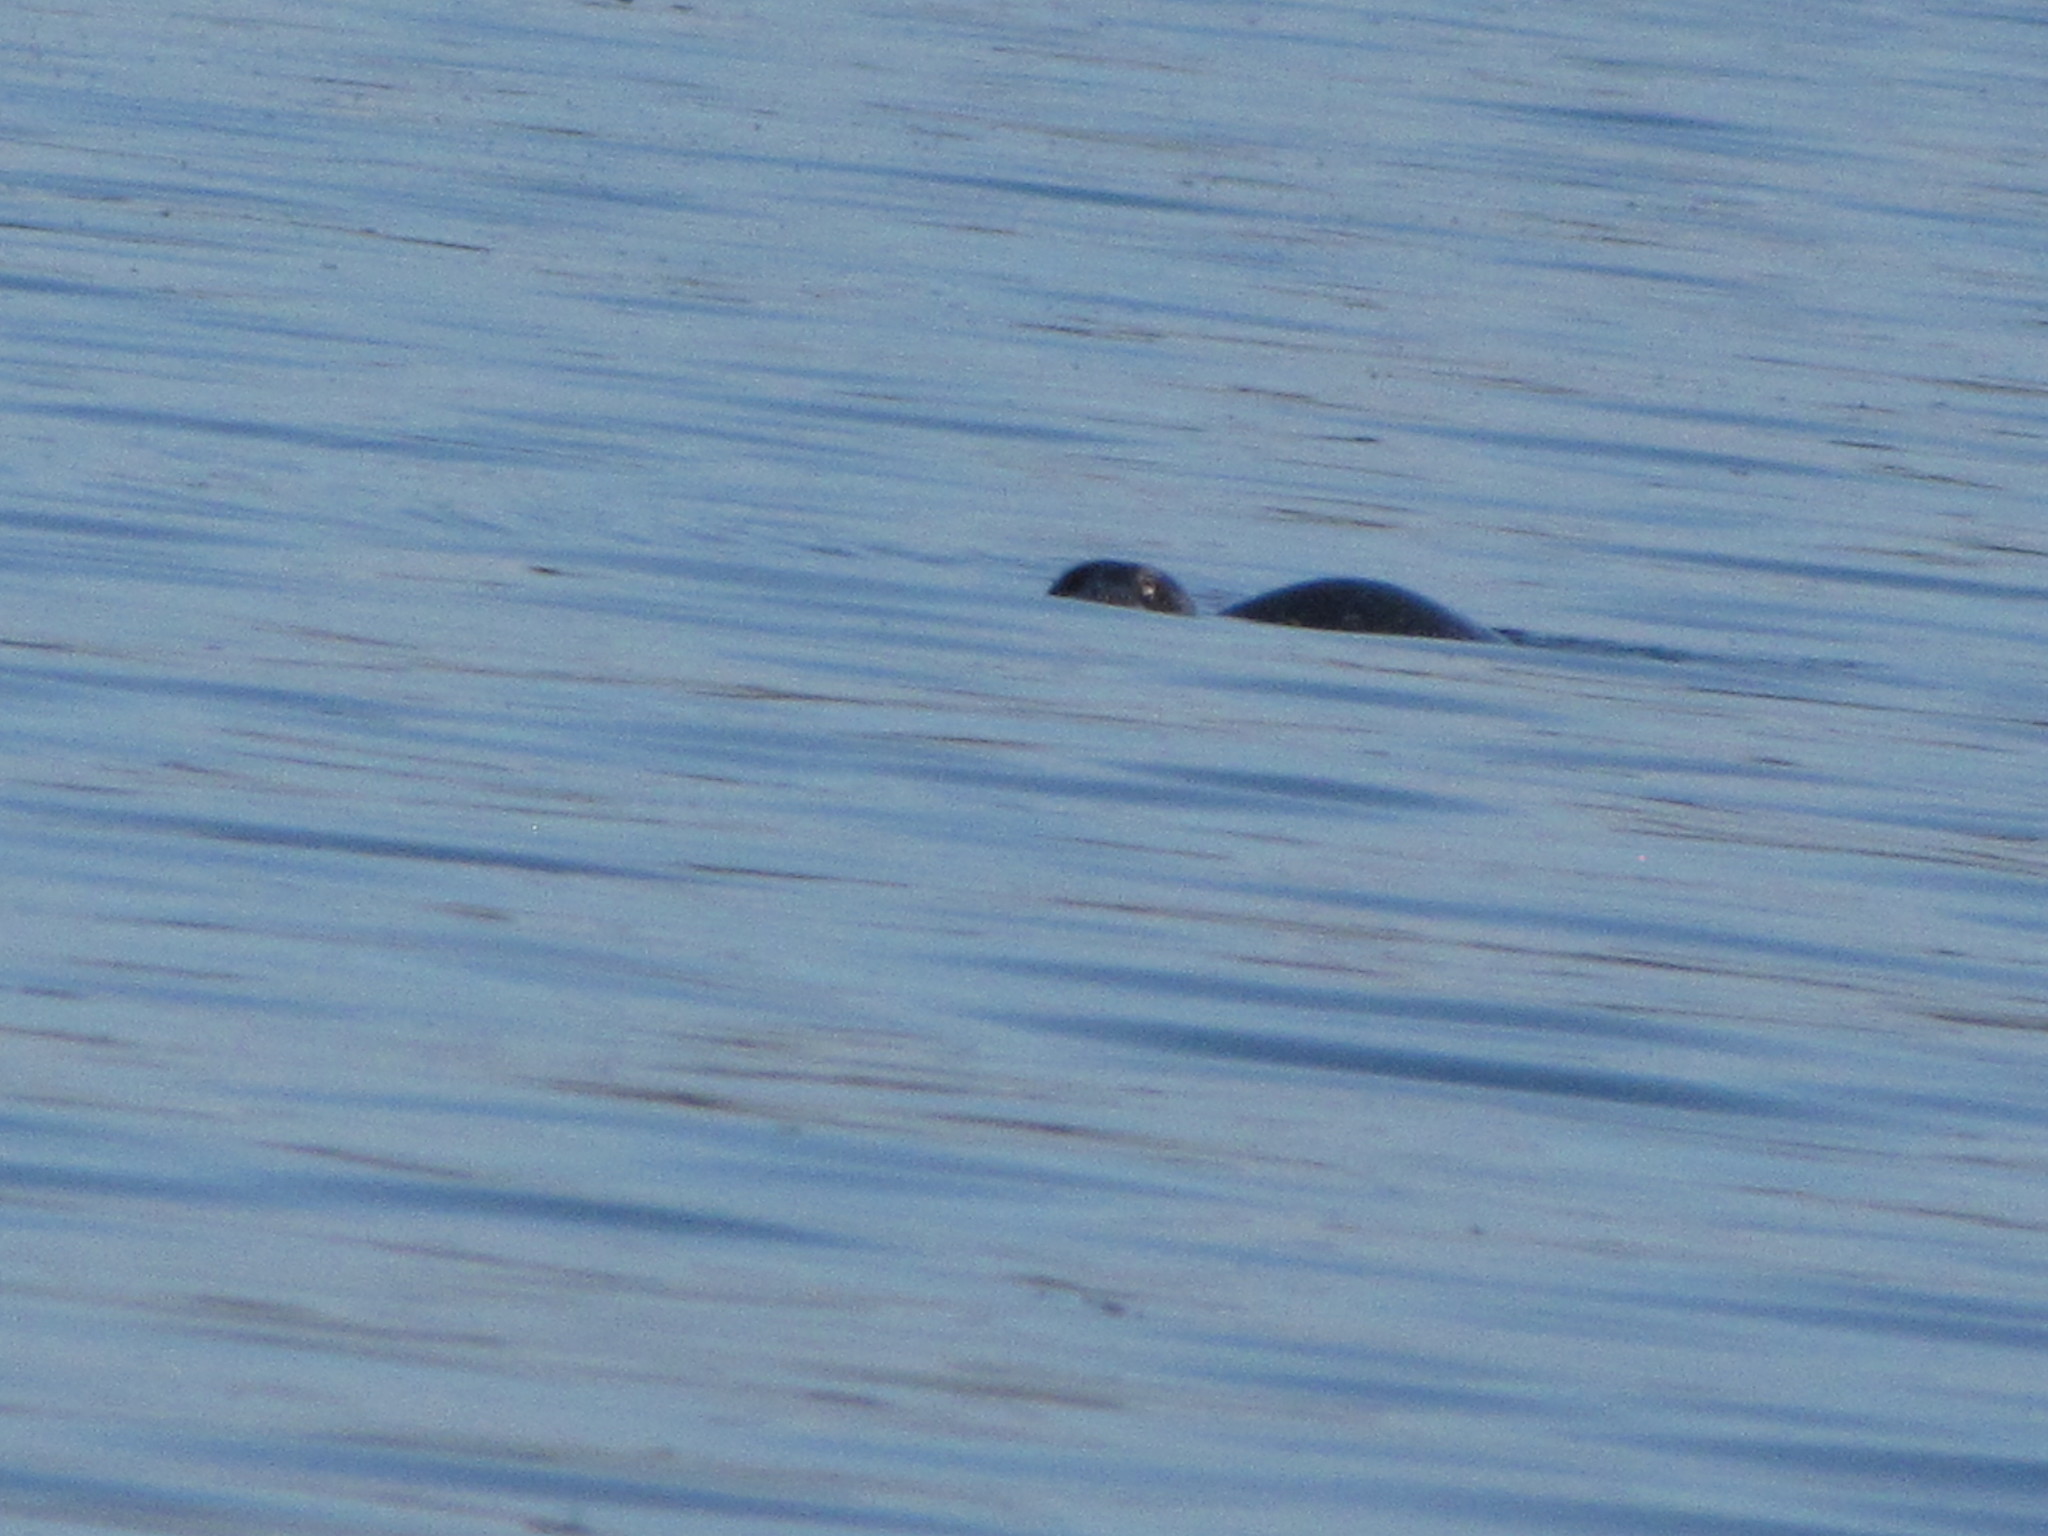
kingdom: Animalia
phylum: Chordata
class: Mammalia
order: Carnivora
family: Phocidae
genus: Phoca
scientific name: Phoca vitulina
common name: Harbor seal
